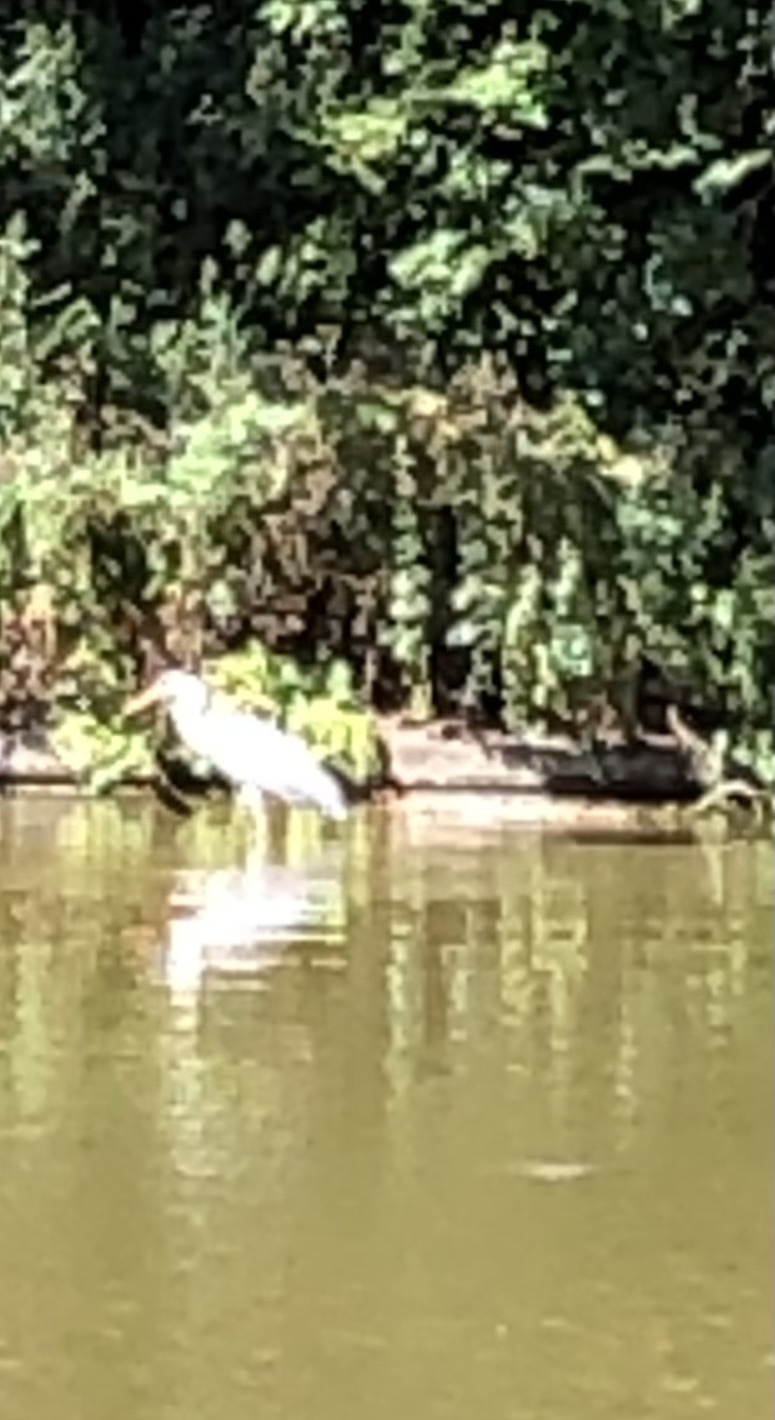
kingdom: Animalia
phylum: Chordata
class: Aves
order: Pelecaniformes
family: Ardeidae
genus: Ardea
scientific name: Ardea cinerea
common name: Grey heron
